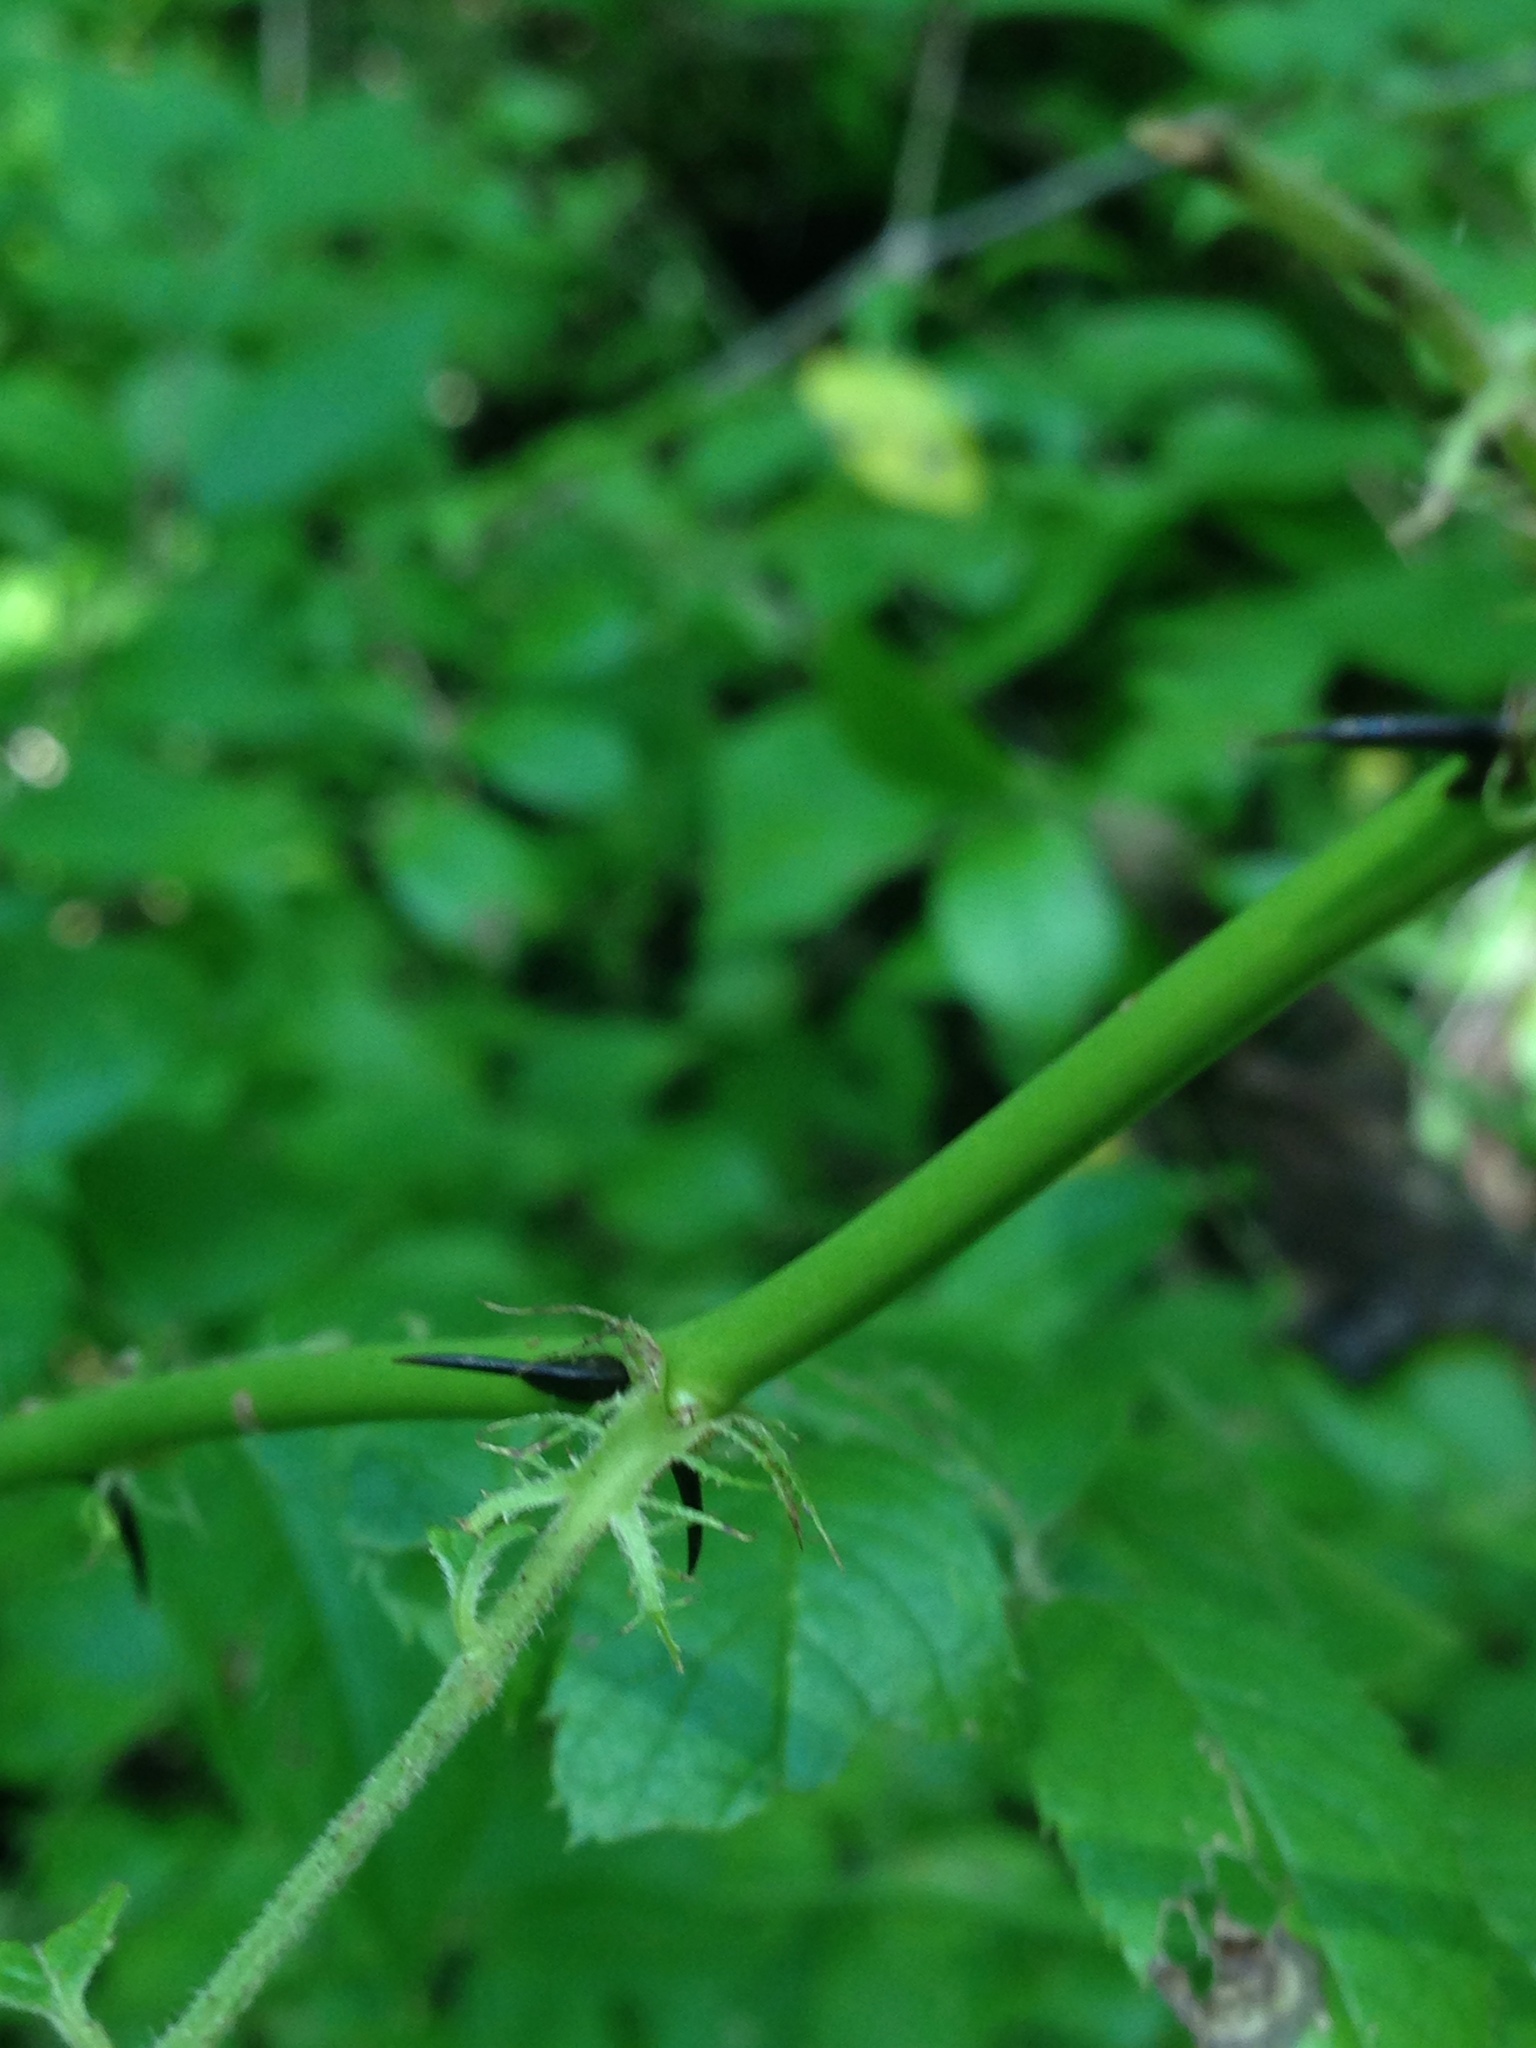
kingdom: Plantae
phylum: Tracheophyta
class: Magnoliopsida
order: Rosales
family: Rosaceae
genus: Rosa
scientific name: Rosa multiflora
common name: Multiflora rose
